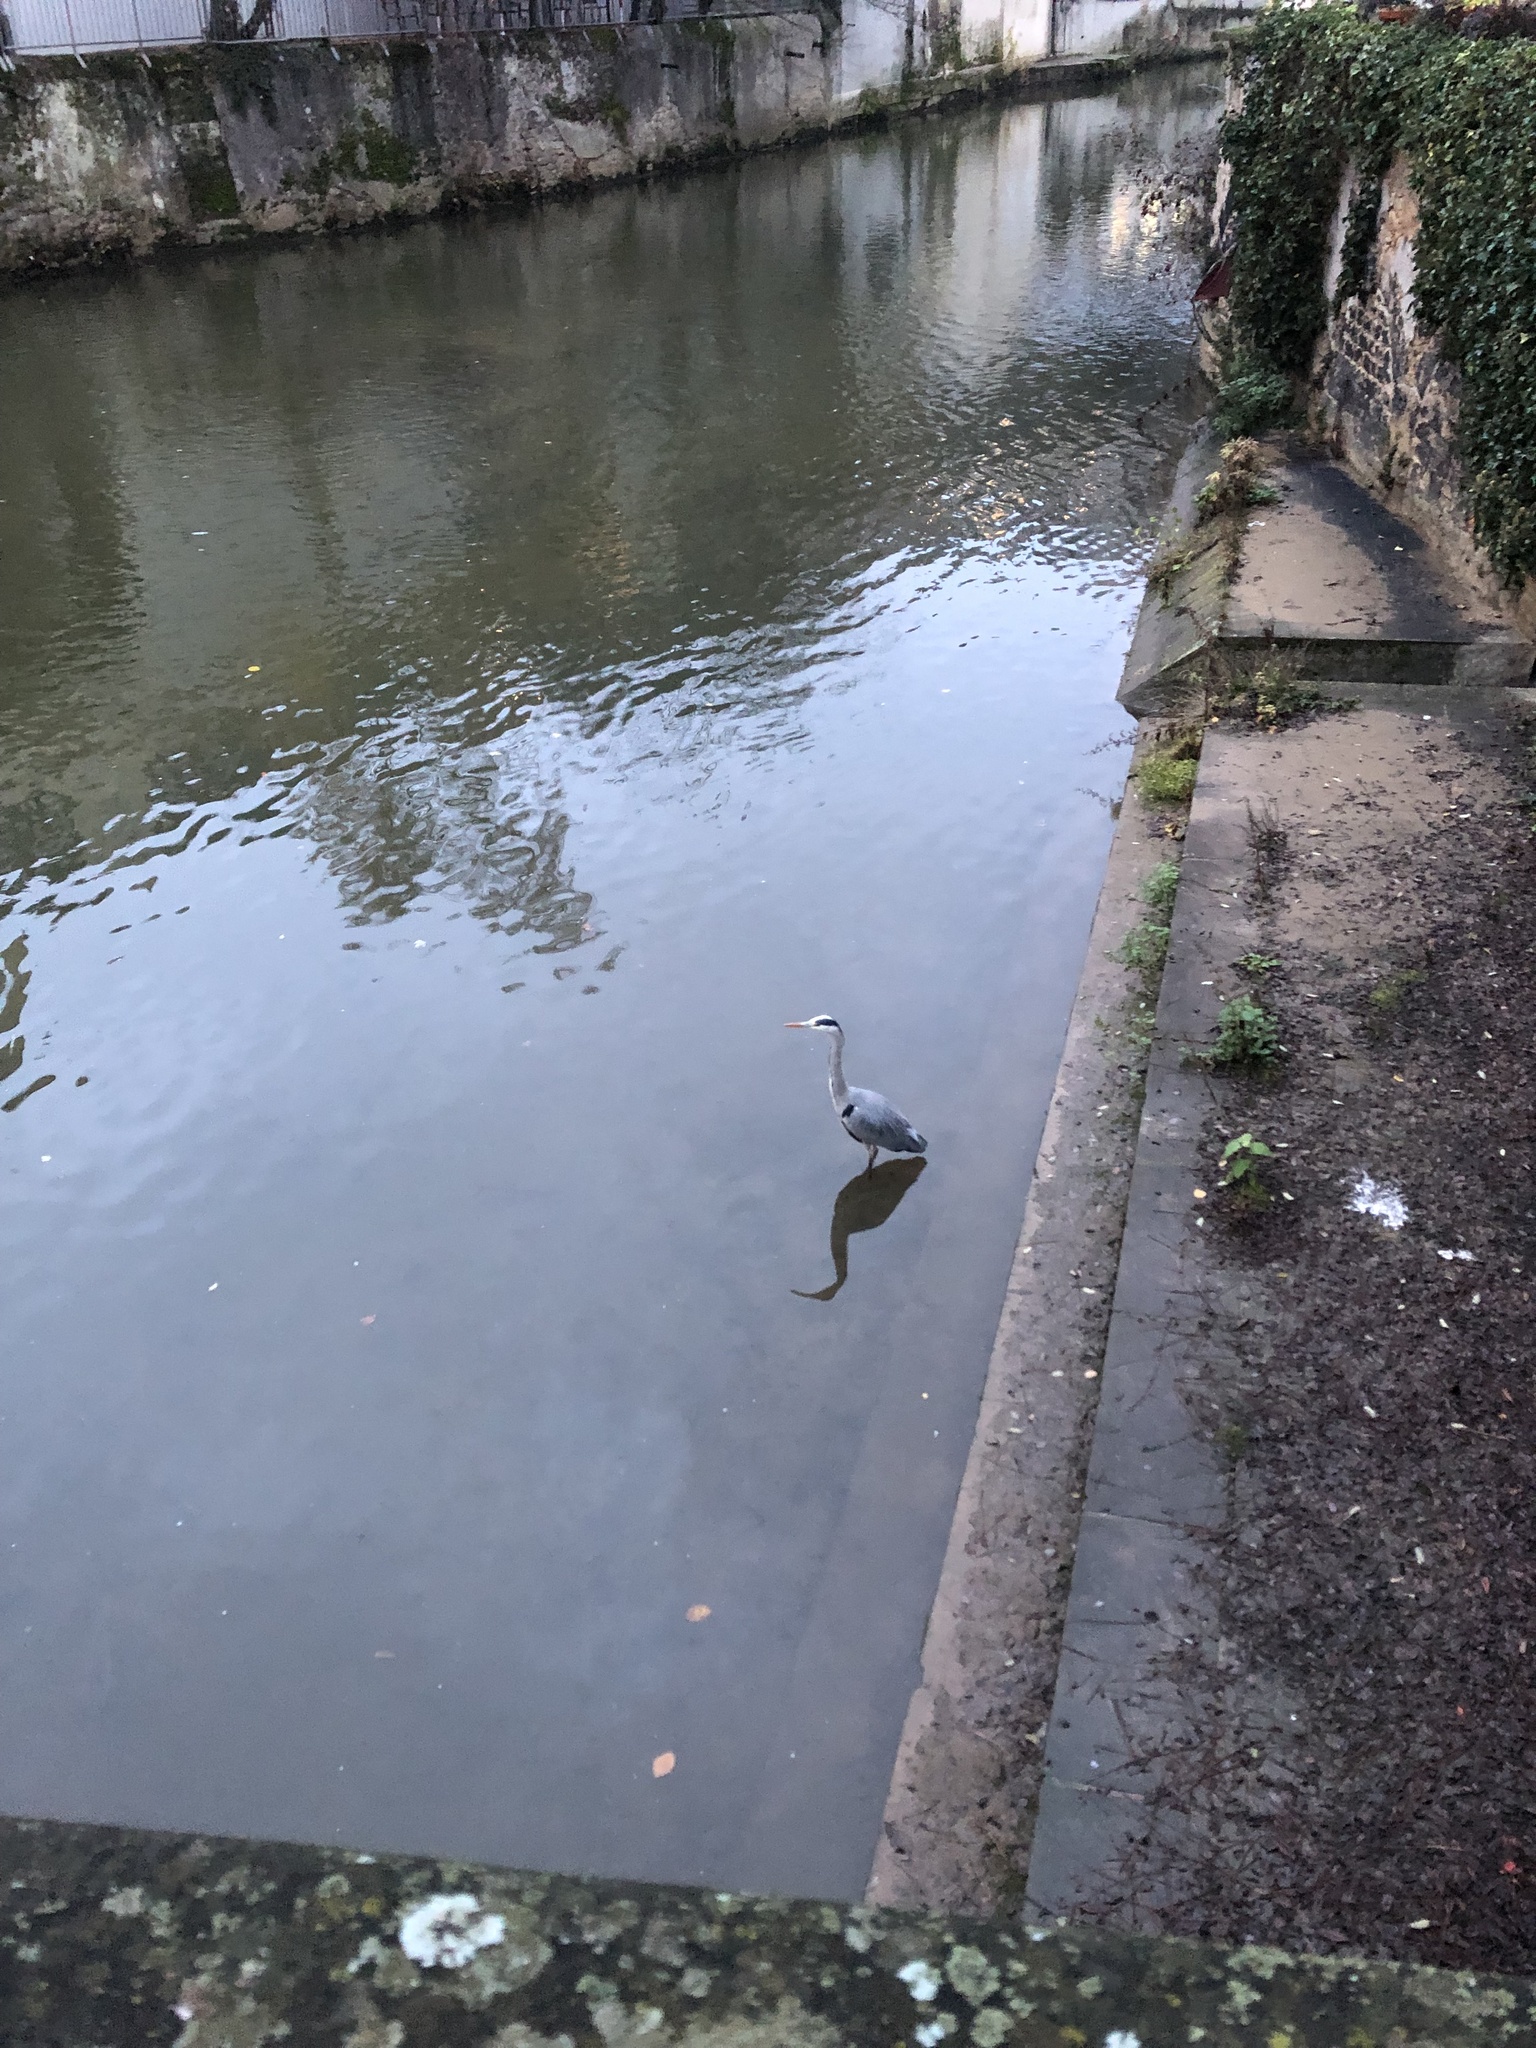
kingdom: Animalia
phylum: Chordata
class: Aves
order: Pelecaniformes
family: Ardeidae
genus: Ardea
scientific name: Ardea cinerea
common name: Grey heron
